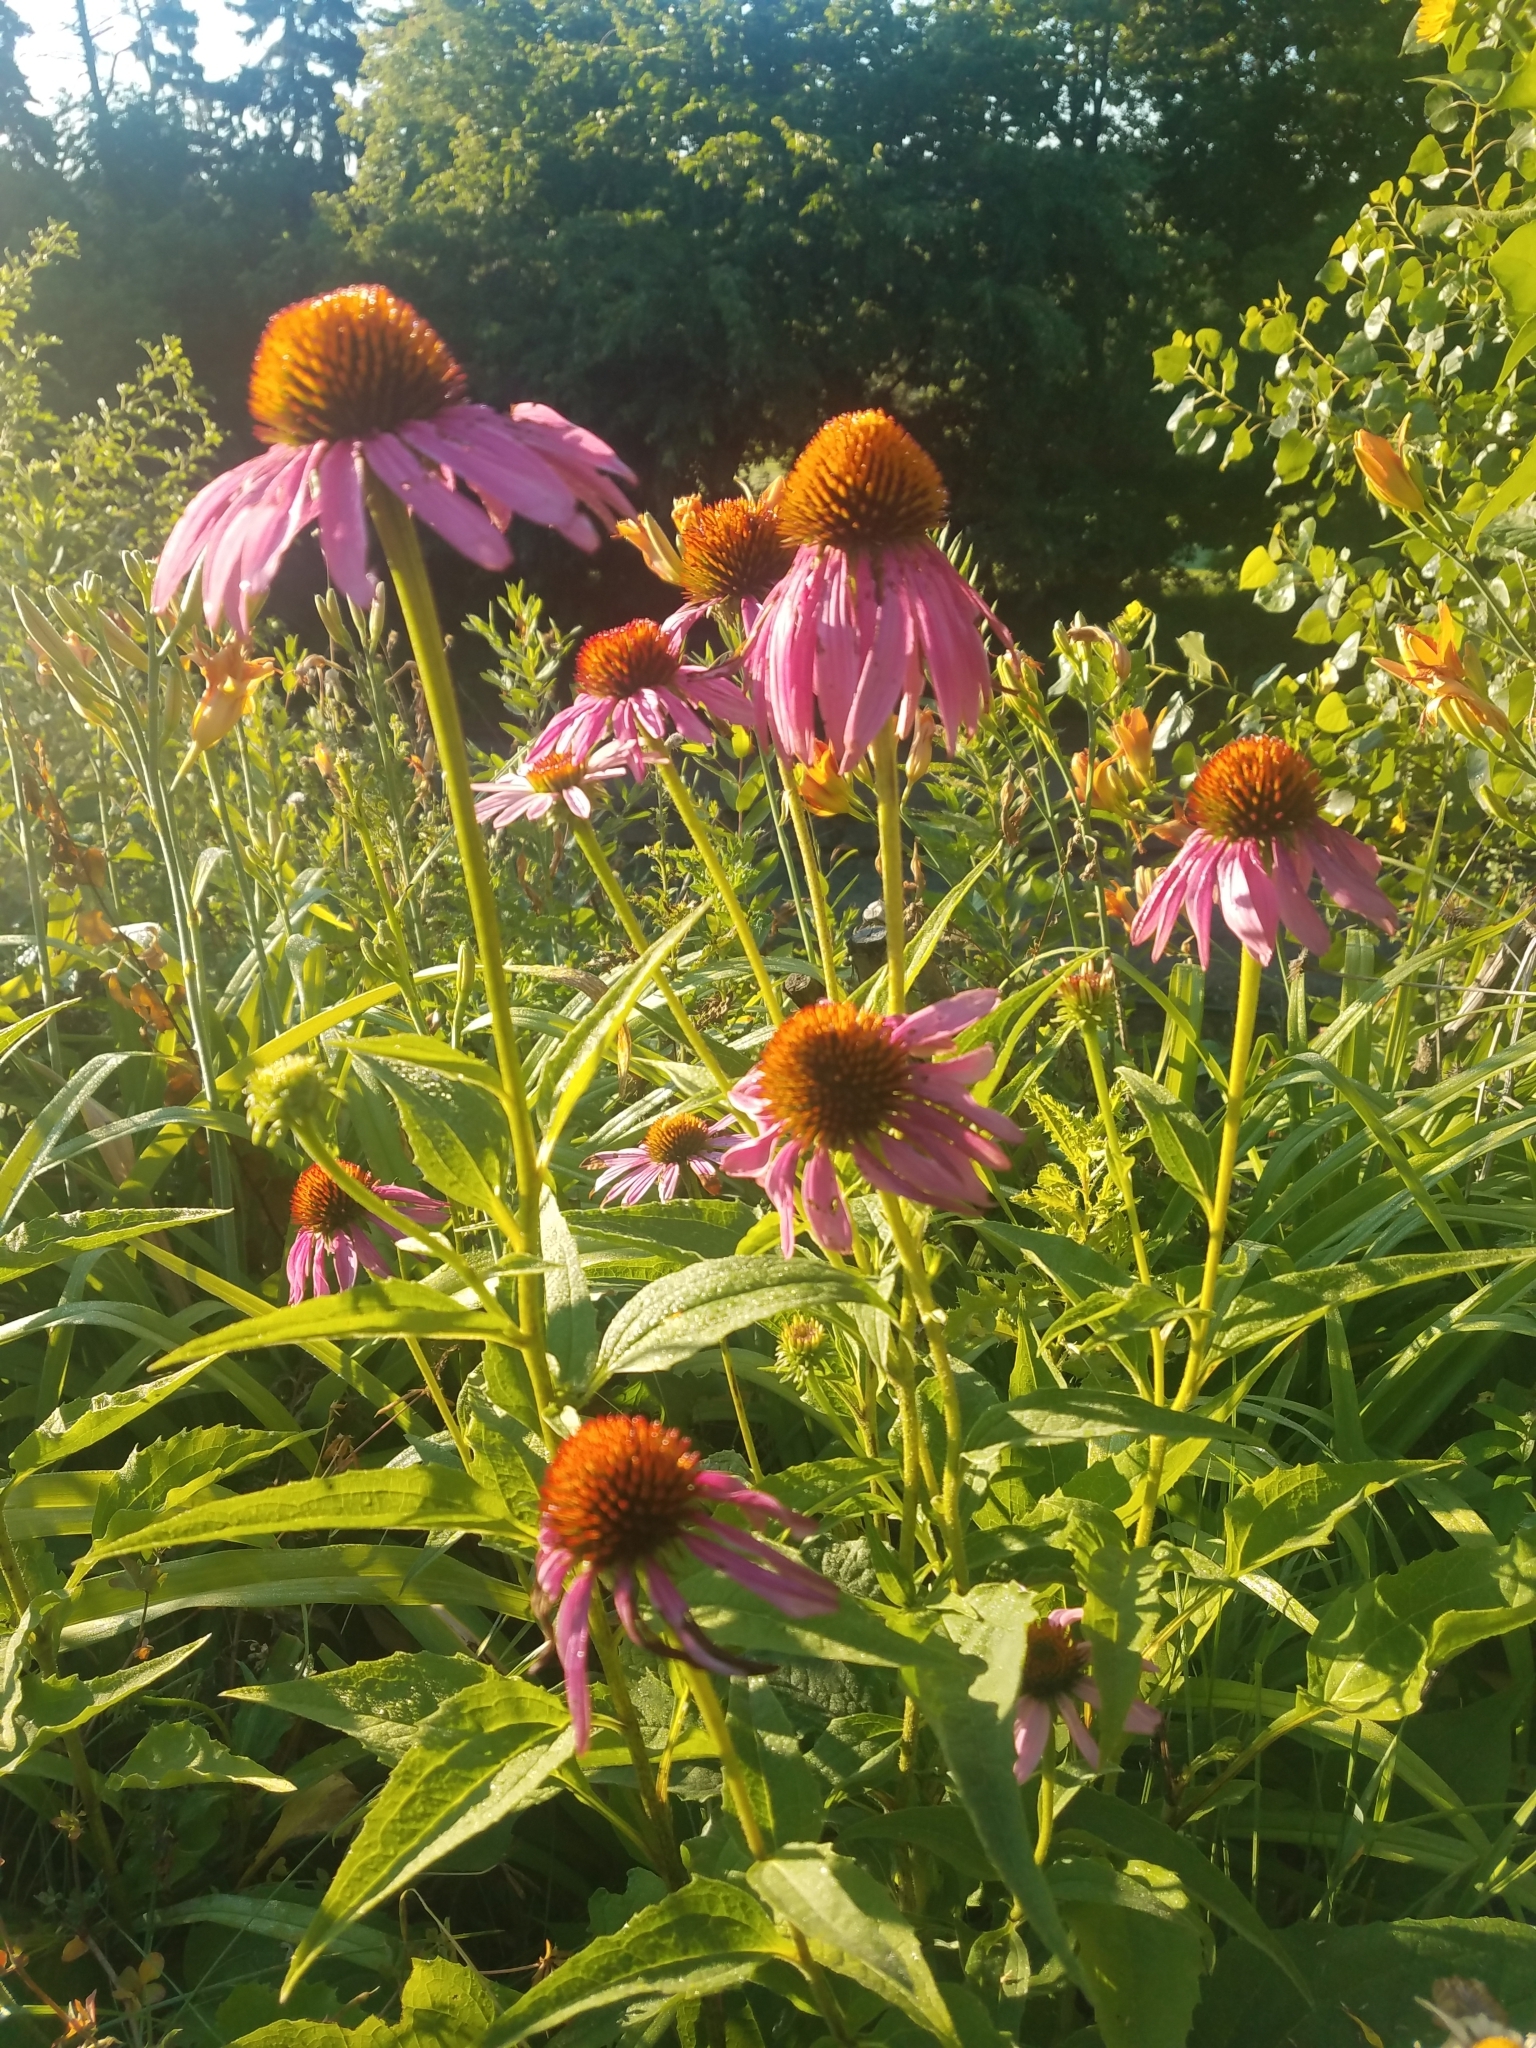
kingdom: Plantae
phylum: Tracheophyta
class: Magnoliopsida
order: Asterales
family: Asteraceae
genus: Echinacea
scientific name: Echinacea purpurea
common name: Broad-leaved purple coneflower
